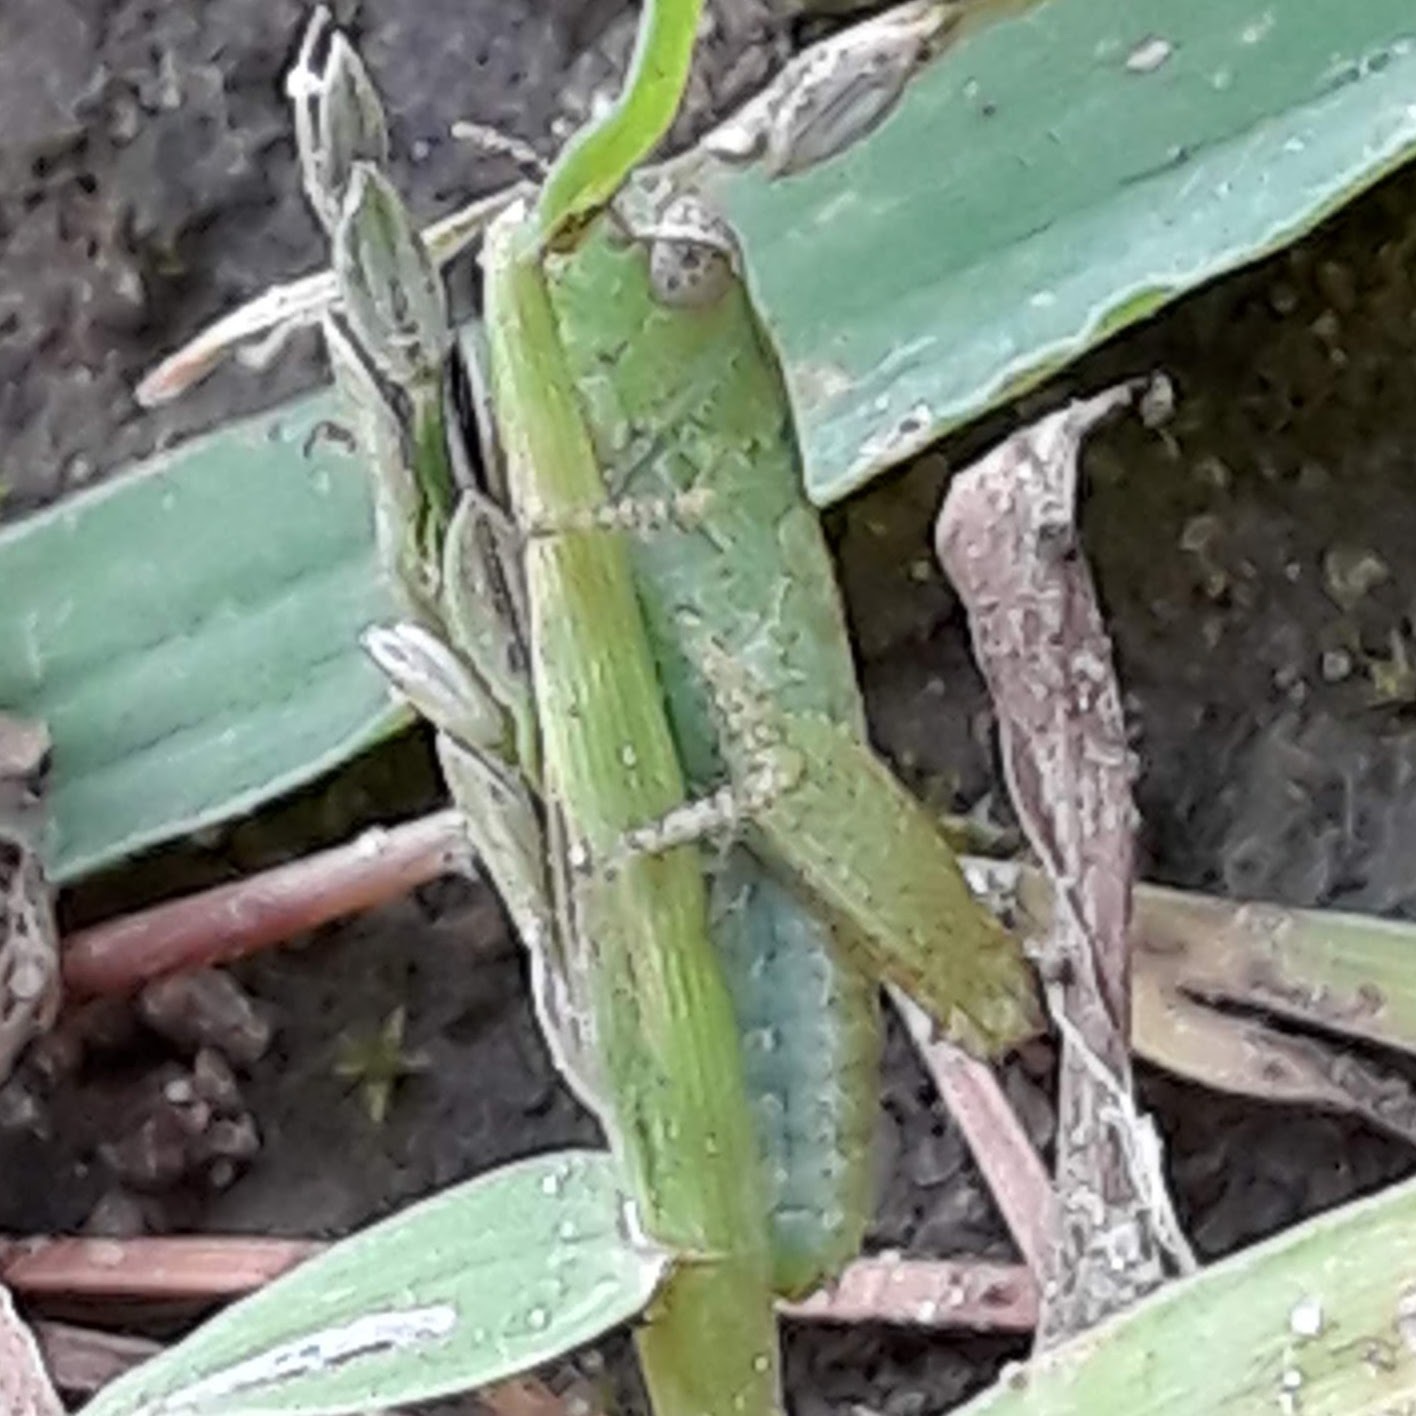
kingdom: Animalia
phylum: Arthropoda
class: Insecta
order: Orthoptera
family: Acrididae
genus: Chortophaga
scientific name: Chortophaga viridifasciata
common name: Green-striped grasshopper
